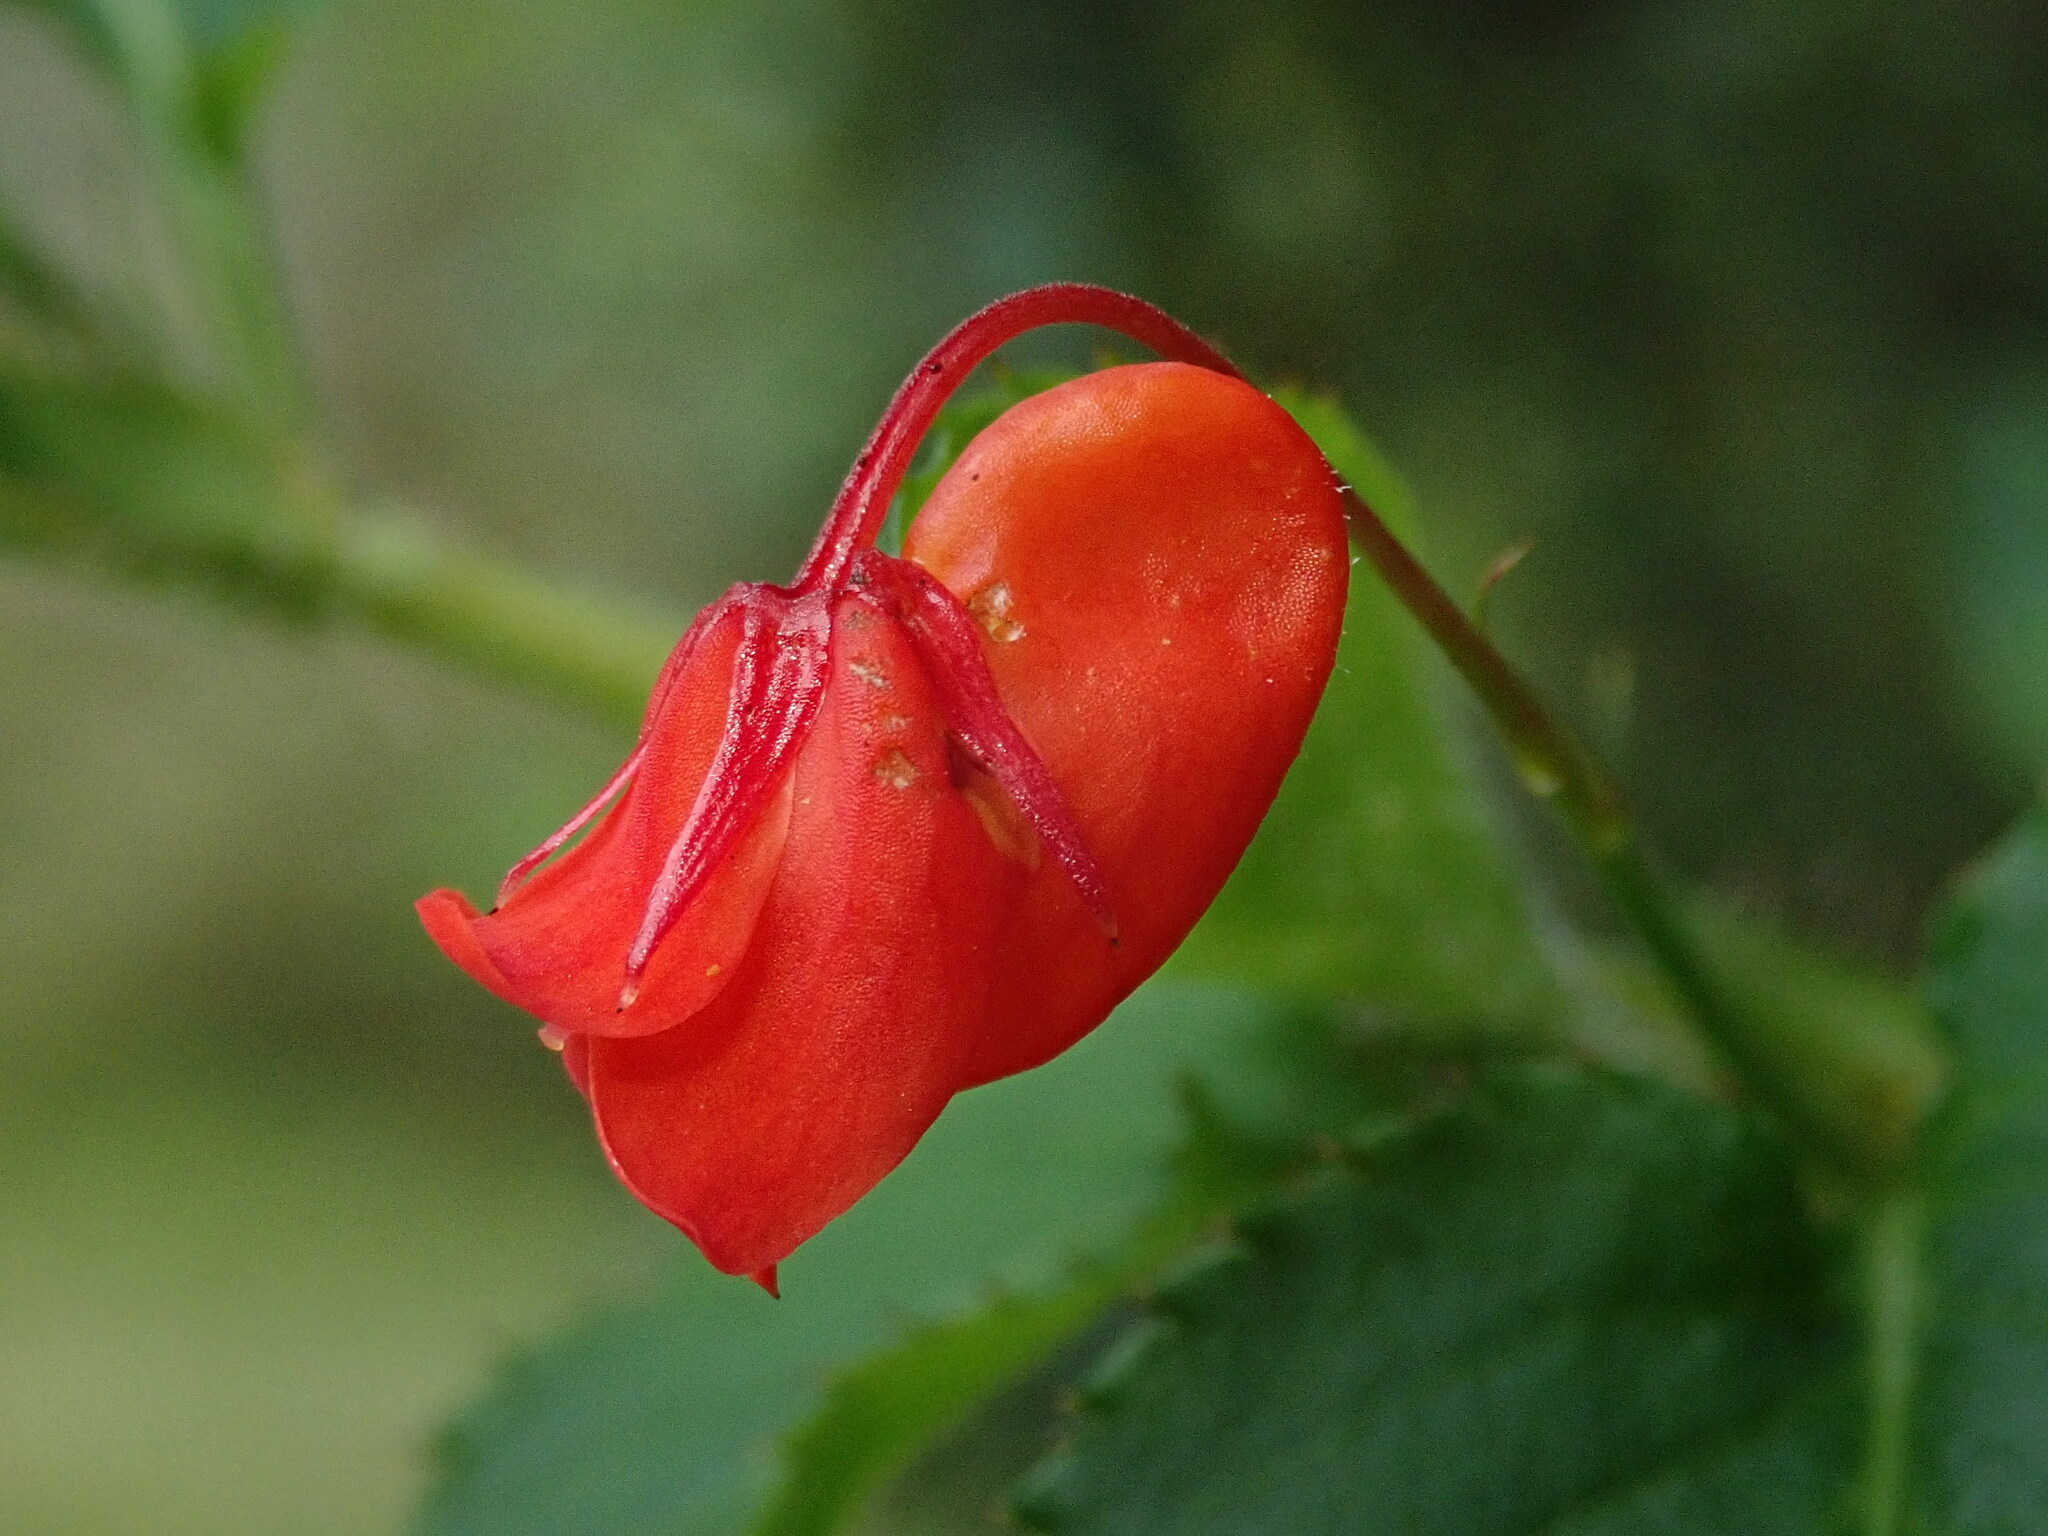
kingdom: Plantae
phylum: Tracheophyta
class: Magnoliopsida
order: Malpighiales
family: Violaceae
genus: Viola
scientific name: Viola arguta
